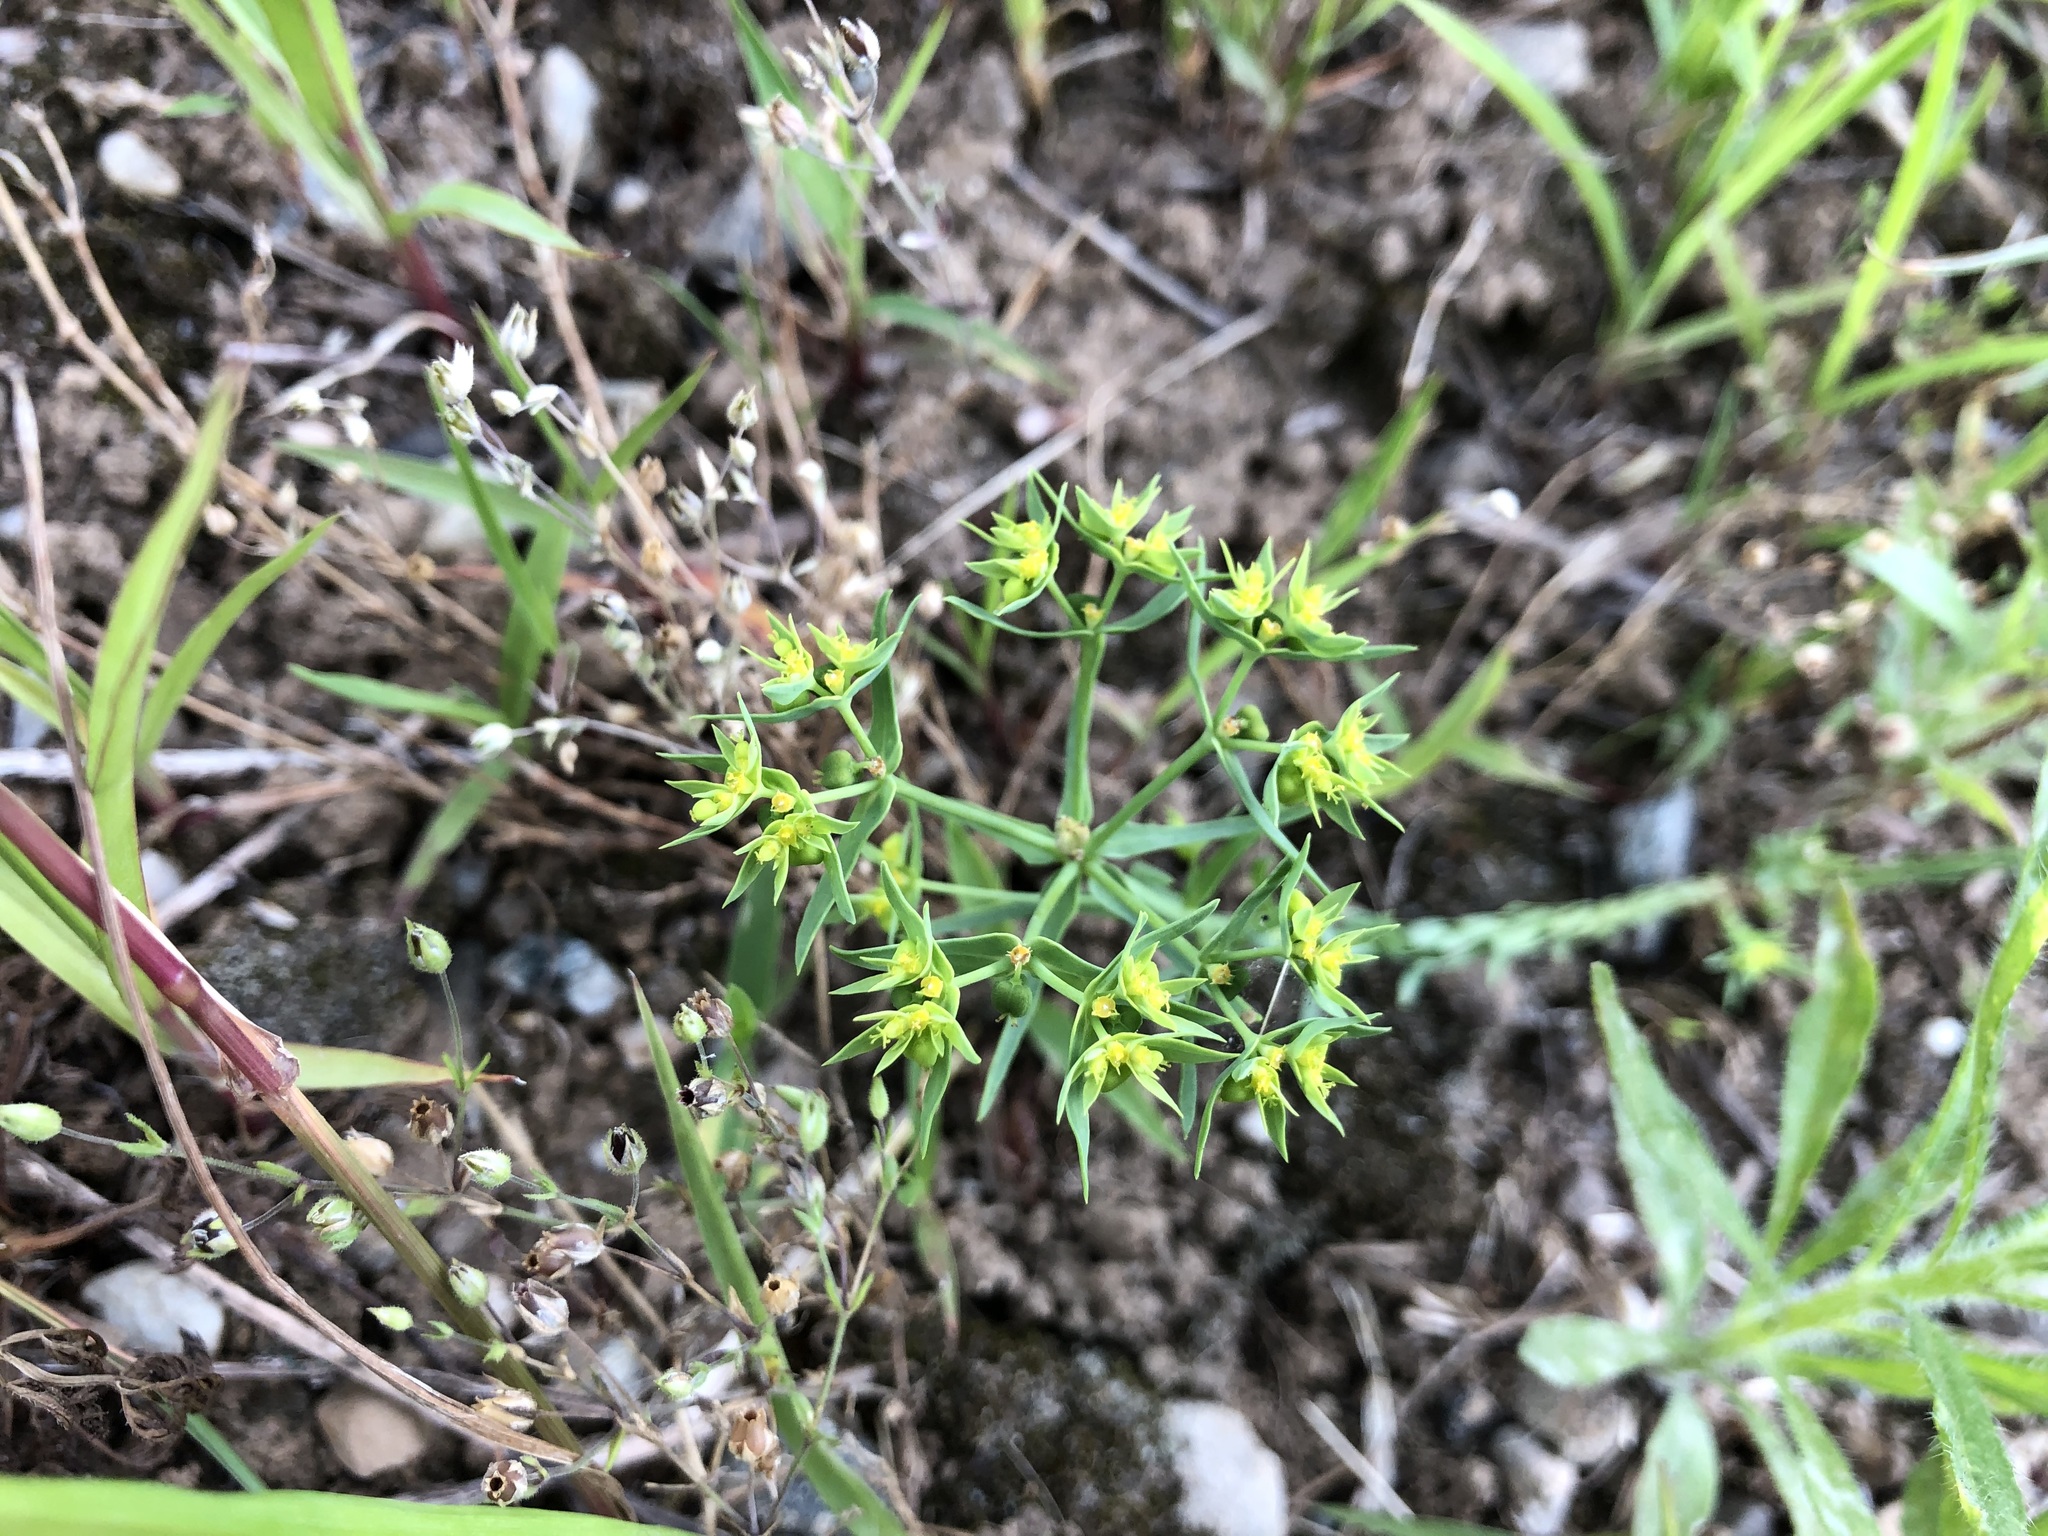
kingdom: Plantae
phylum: Tracheophyta
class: Magnoliopsida
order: Malpighiales
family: Euphorbiaceae
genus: Euphorbia
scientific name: Euphorbia exigua
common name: Dwarf spurge
